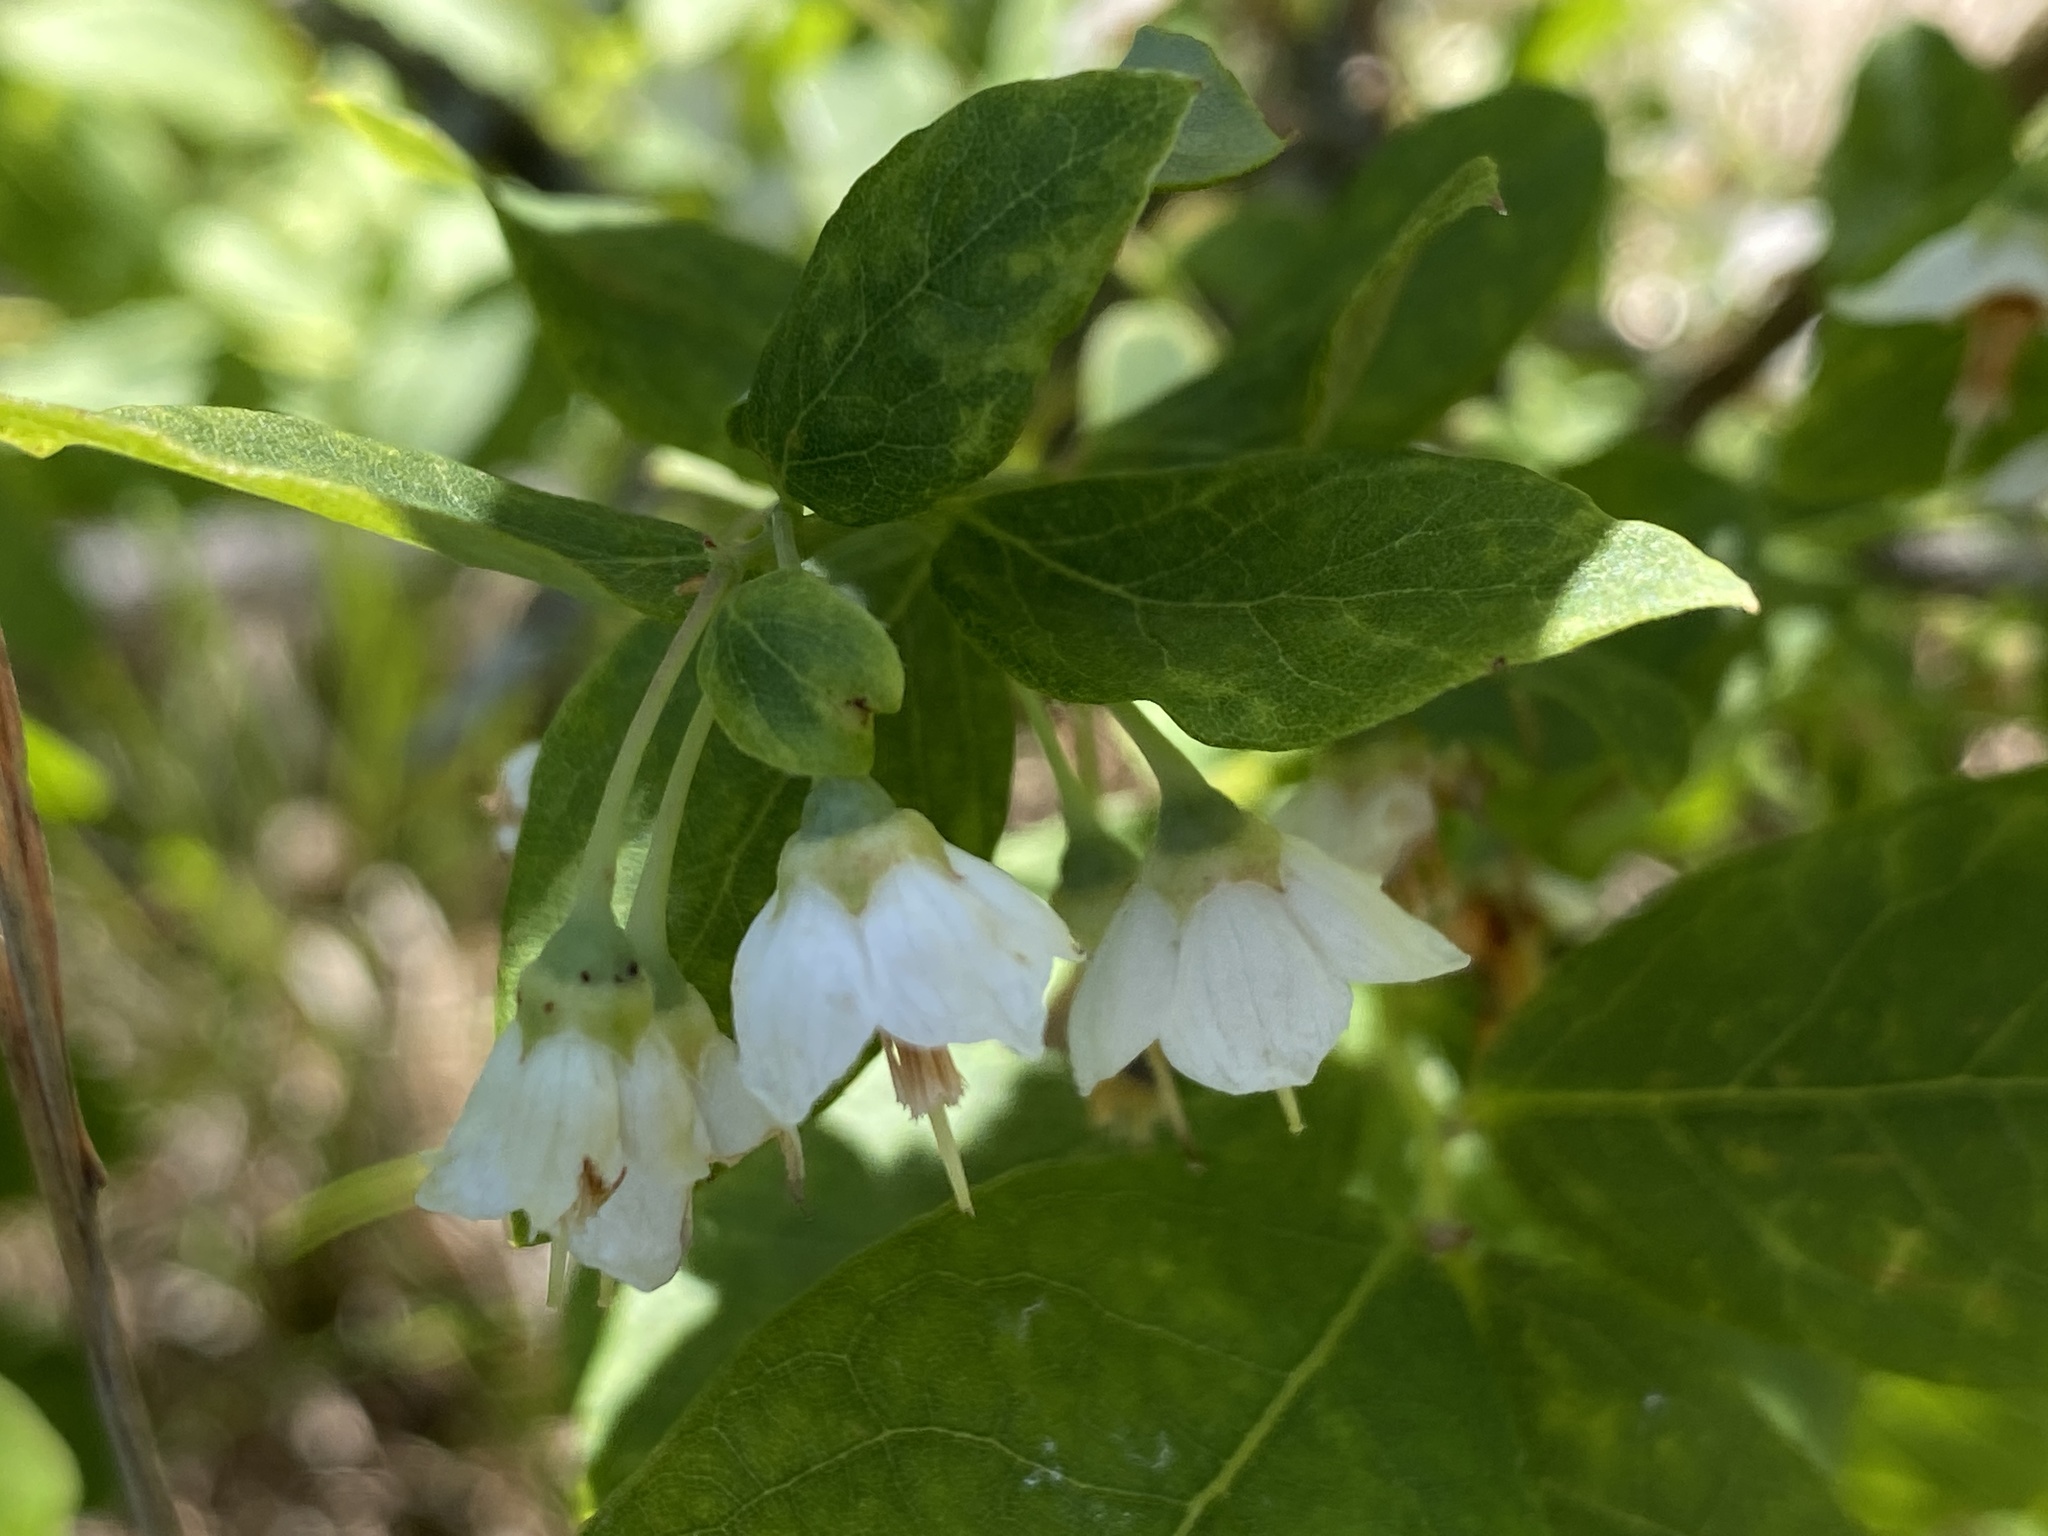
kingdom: Plantae
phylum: Tracheophyta
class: Magnoliopsida
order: Ericales
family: Ericaceae
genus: Vaccinium
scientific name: Vaccinium stamineum
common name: Deerberry
